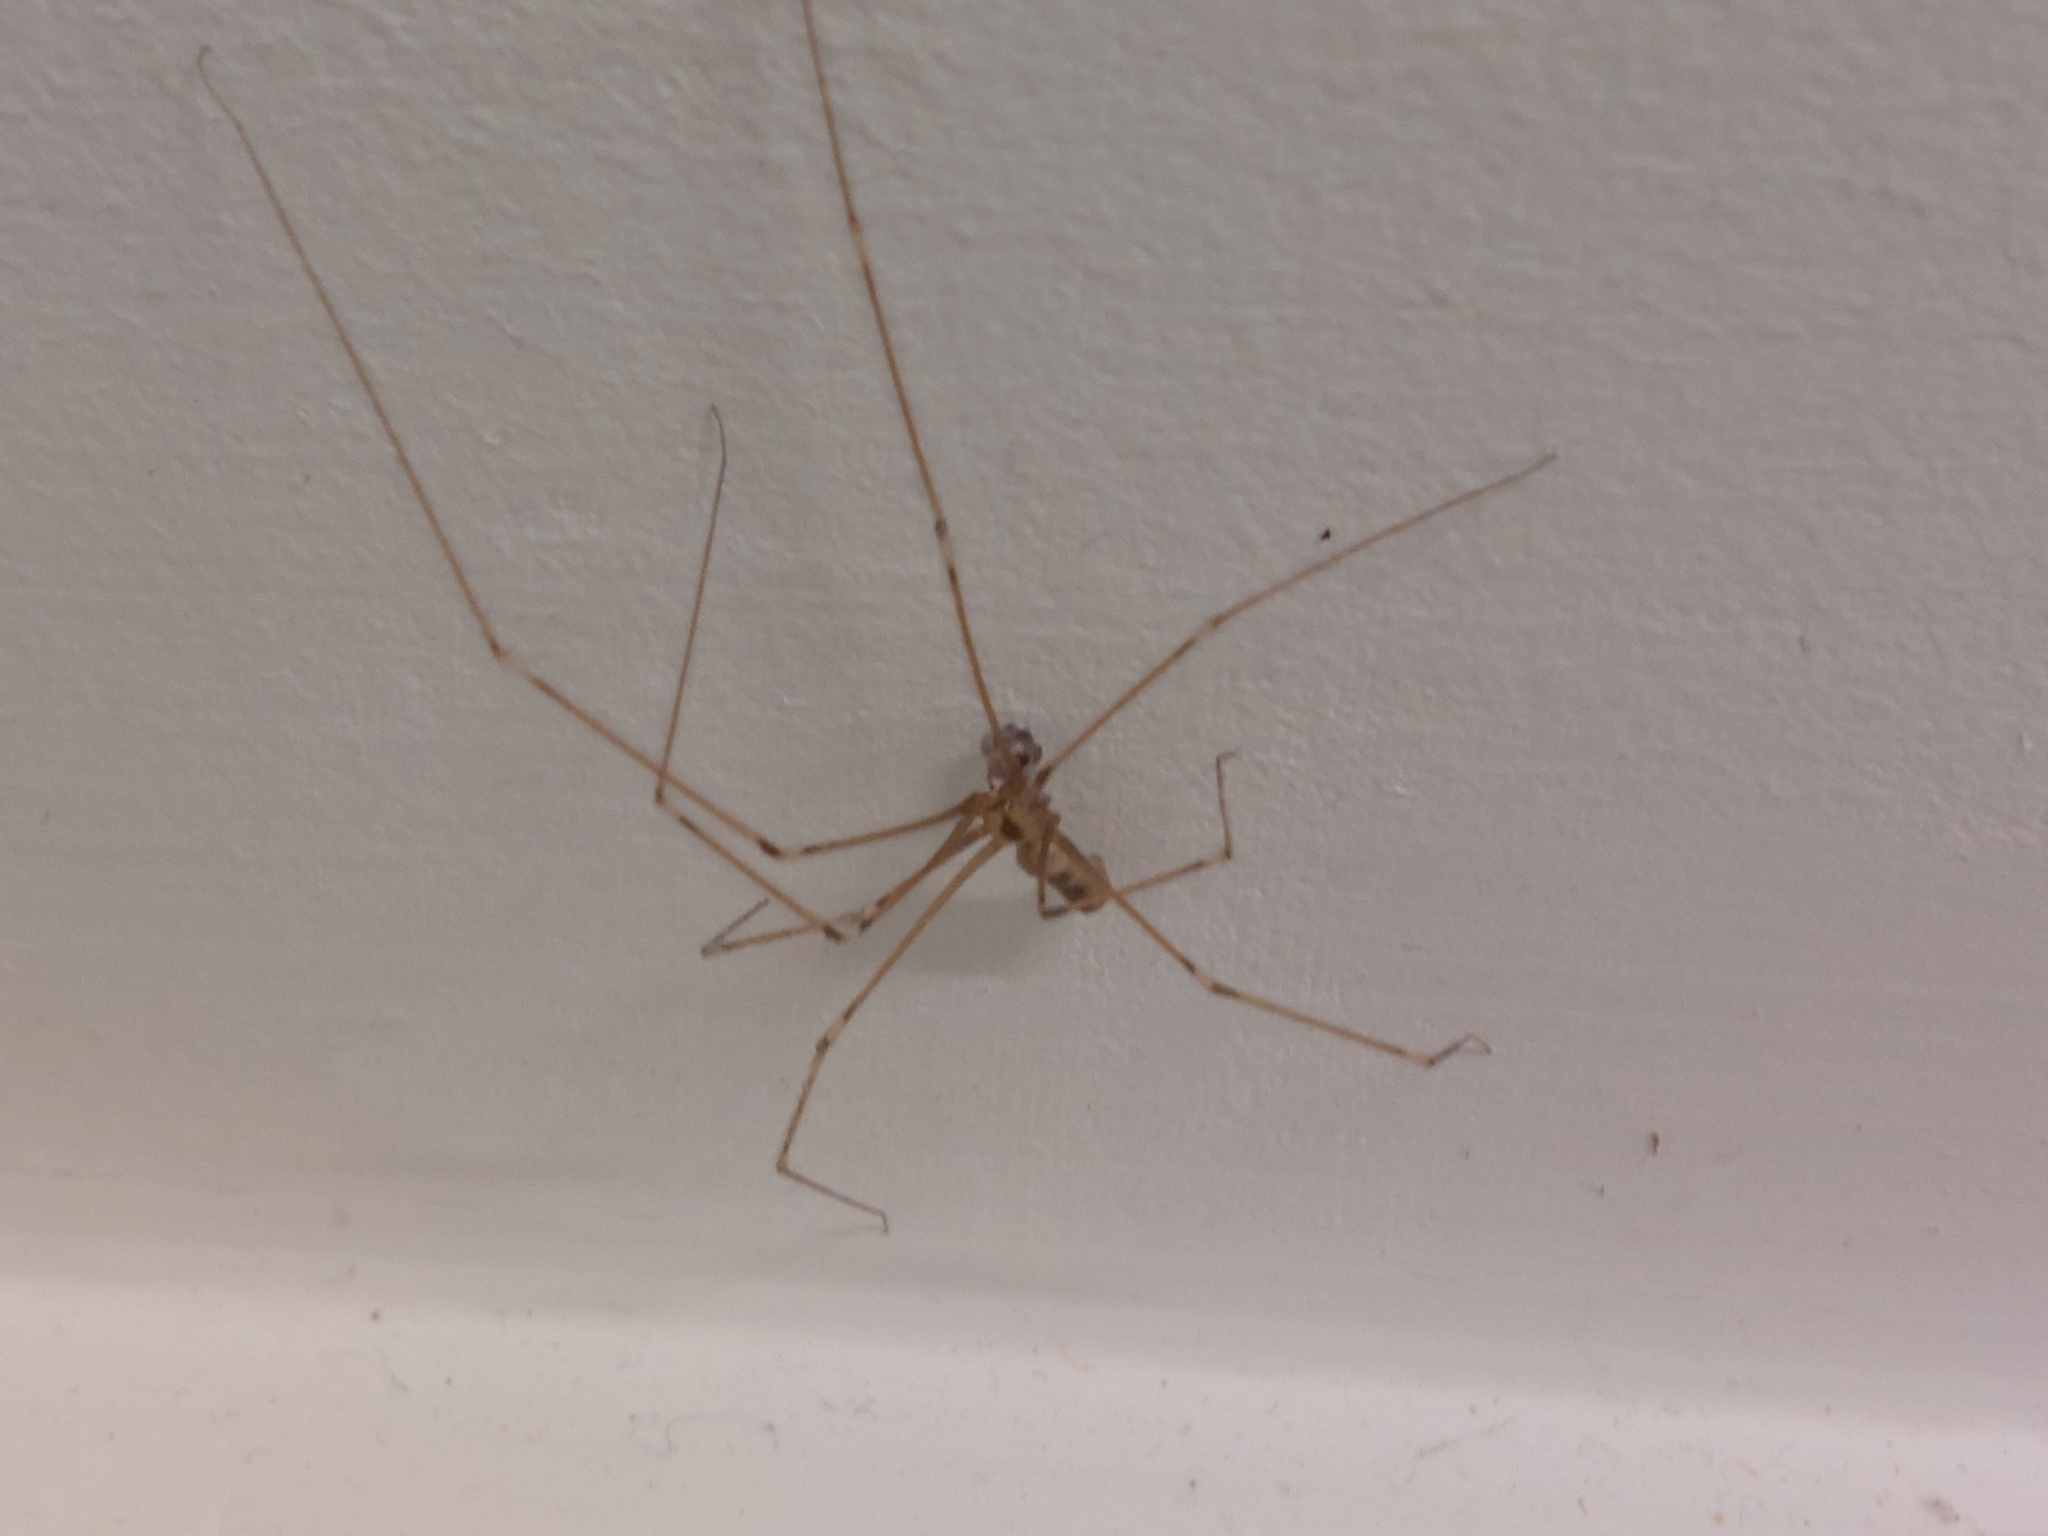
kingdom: Animalia
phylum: Arthropoda
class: Arachnida
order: Araneae
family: Pholcidae
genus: Pholcus
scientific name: Pholcus phalangioides
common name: Longbodied cellar spider
